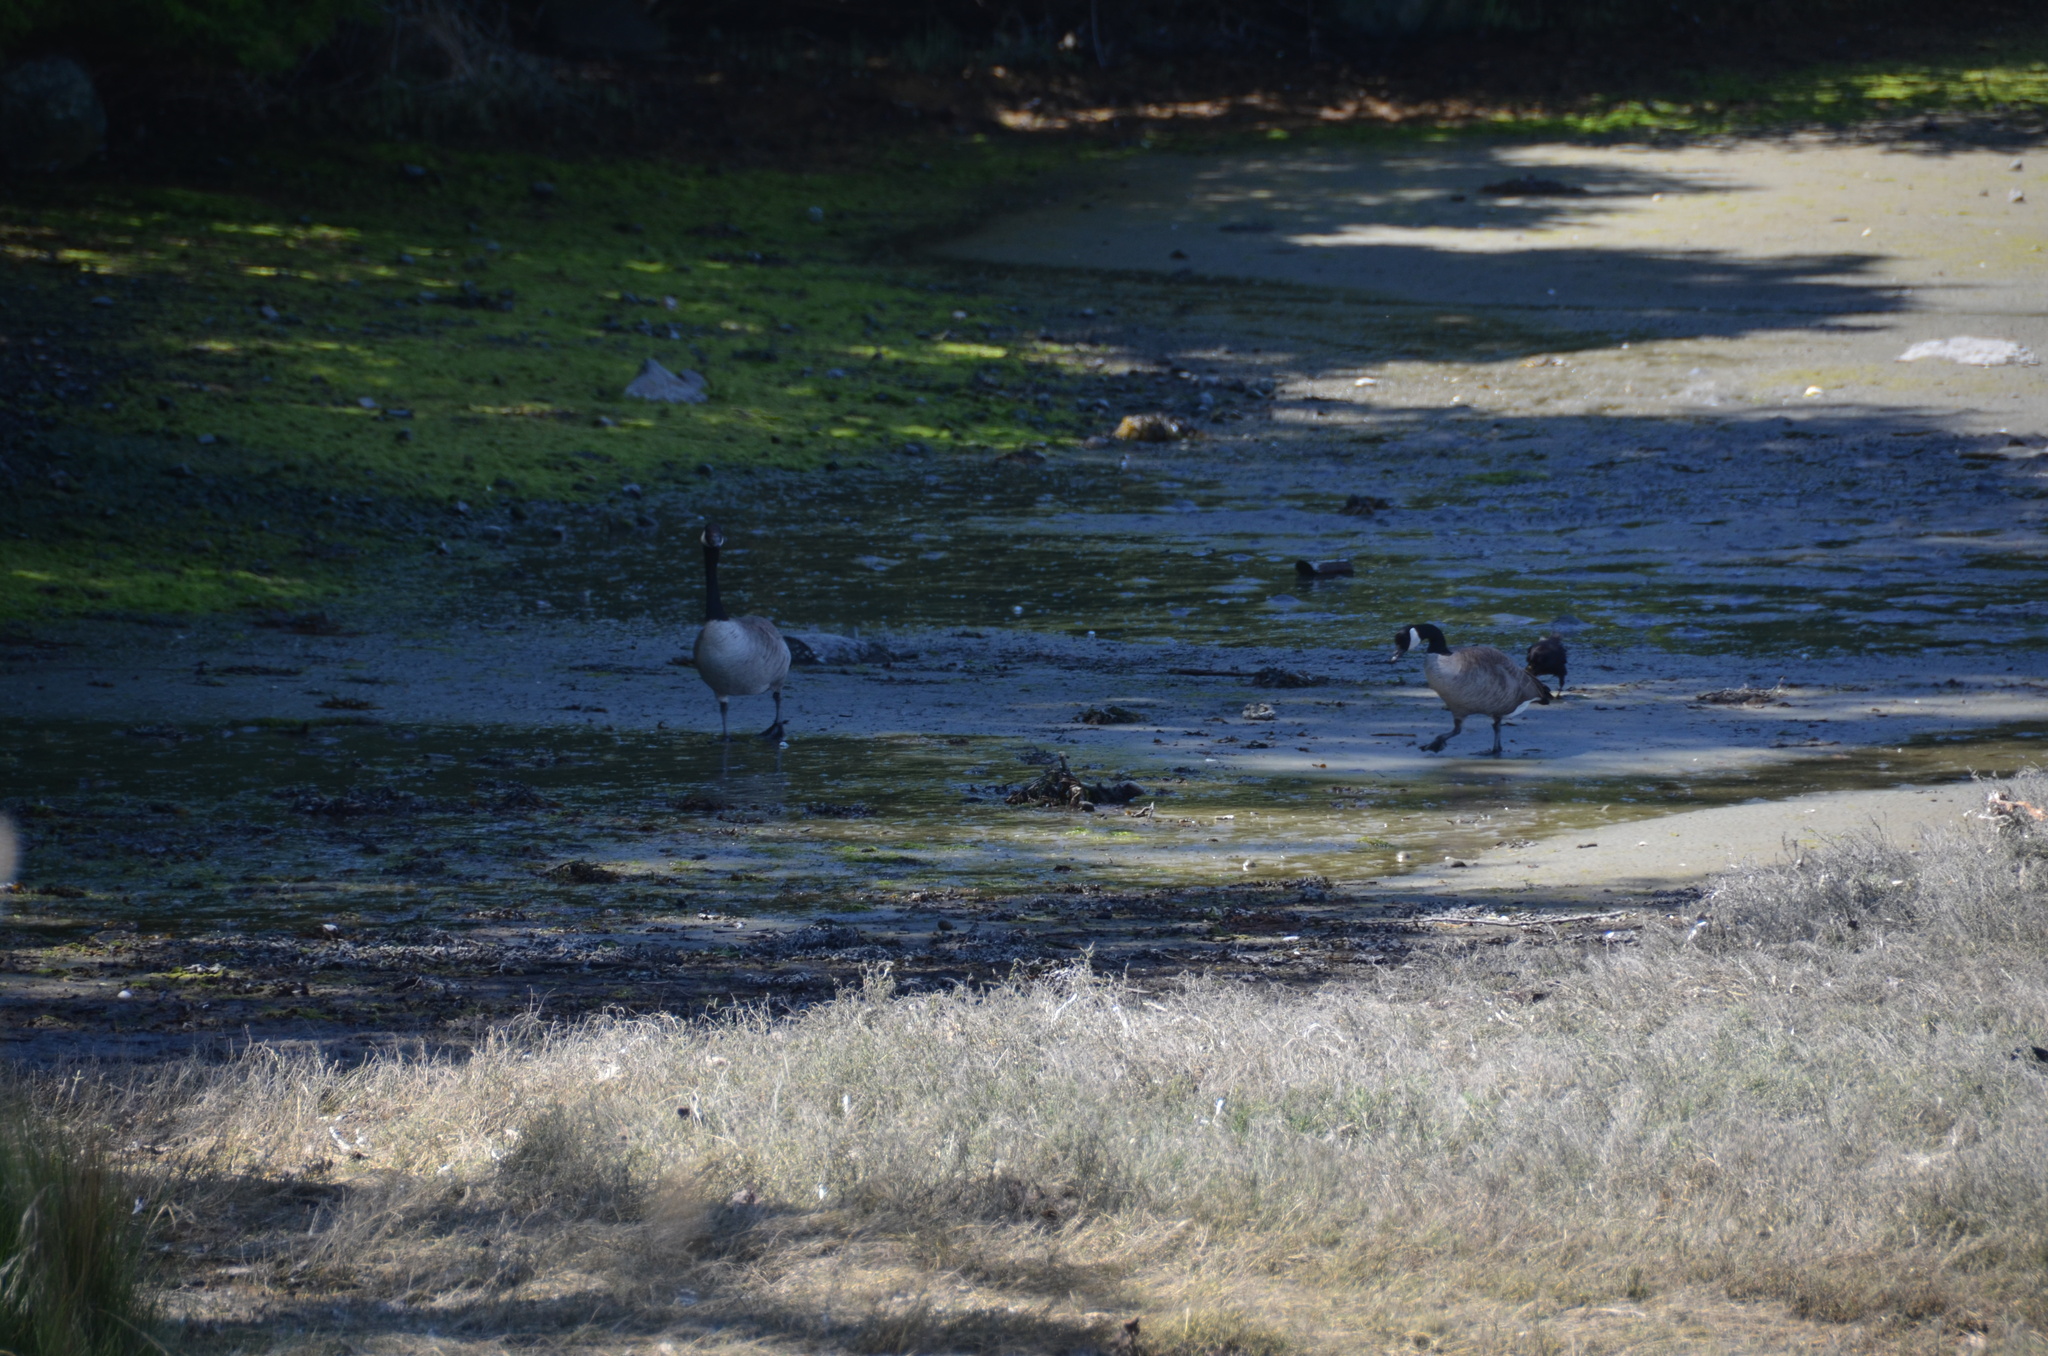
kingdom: Animalia
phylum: Chordata
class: Aves
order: Anseriformes
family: Anatidae
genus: Branta
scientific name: Branta canadensis
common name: Canada goose
